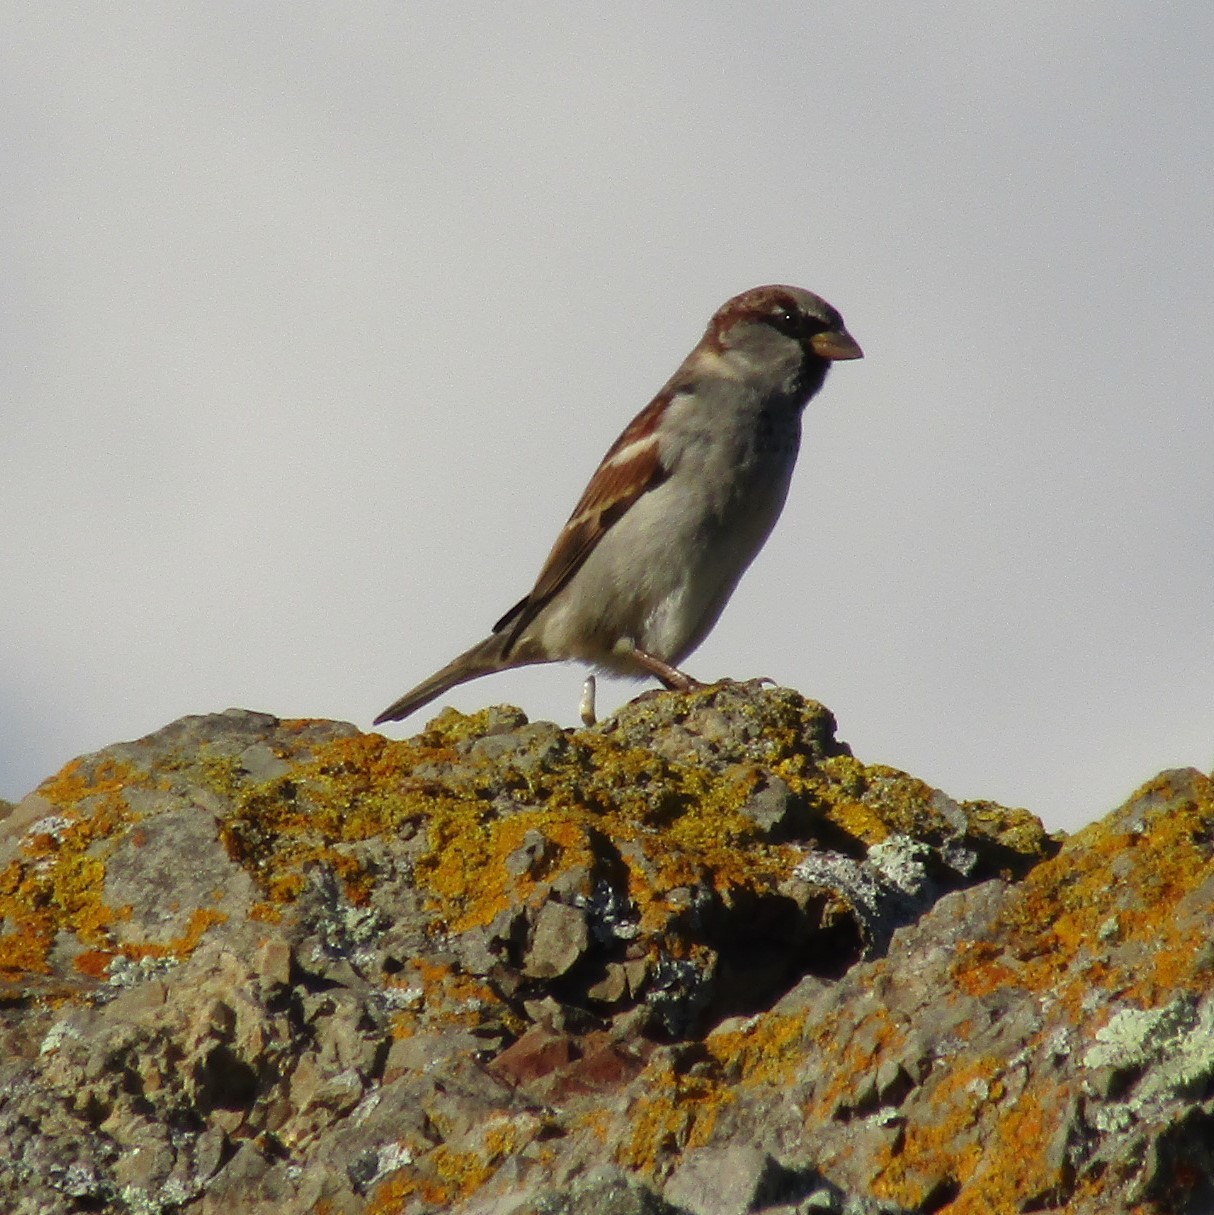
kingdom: Animalia
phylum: Chordata
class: Aves
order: Passeriformes
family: Passeridae
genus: Passer
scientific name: Passer domesticus
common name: House sparrow
